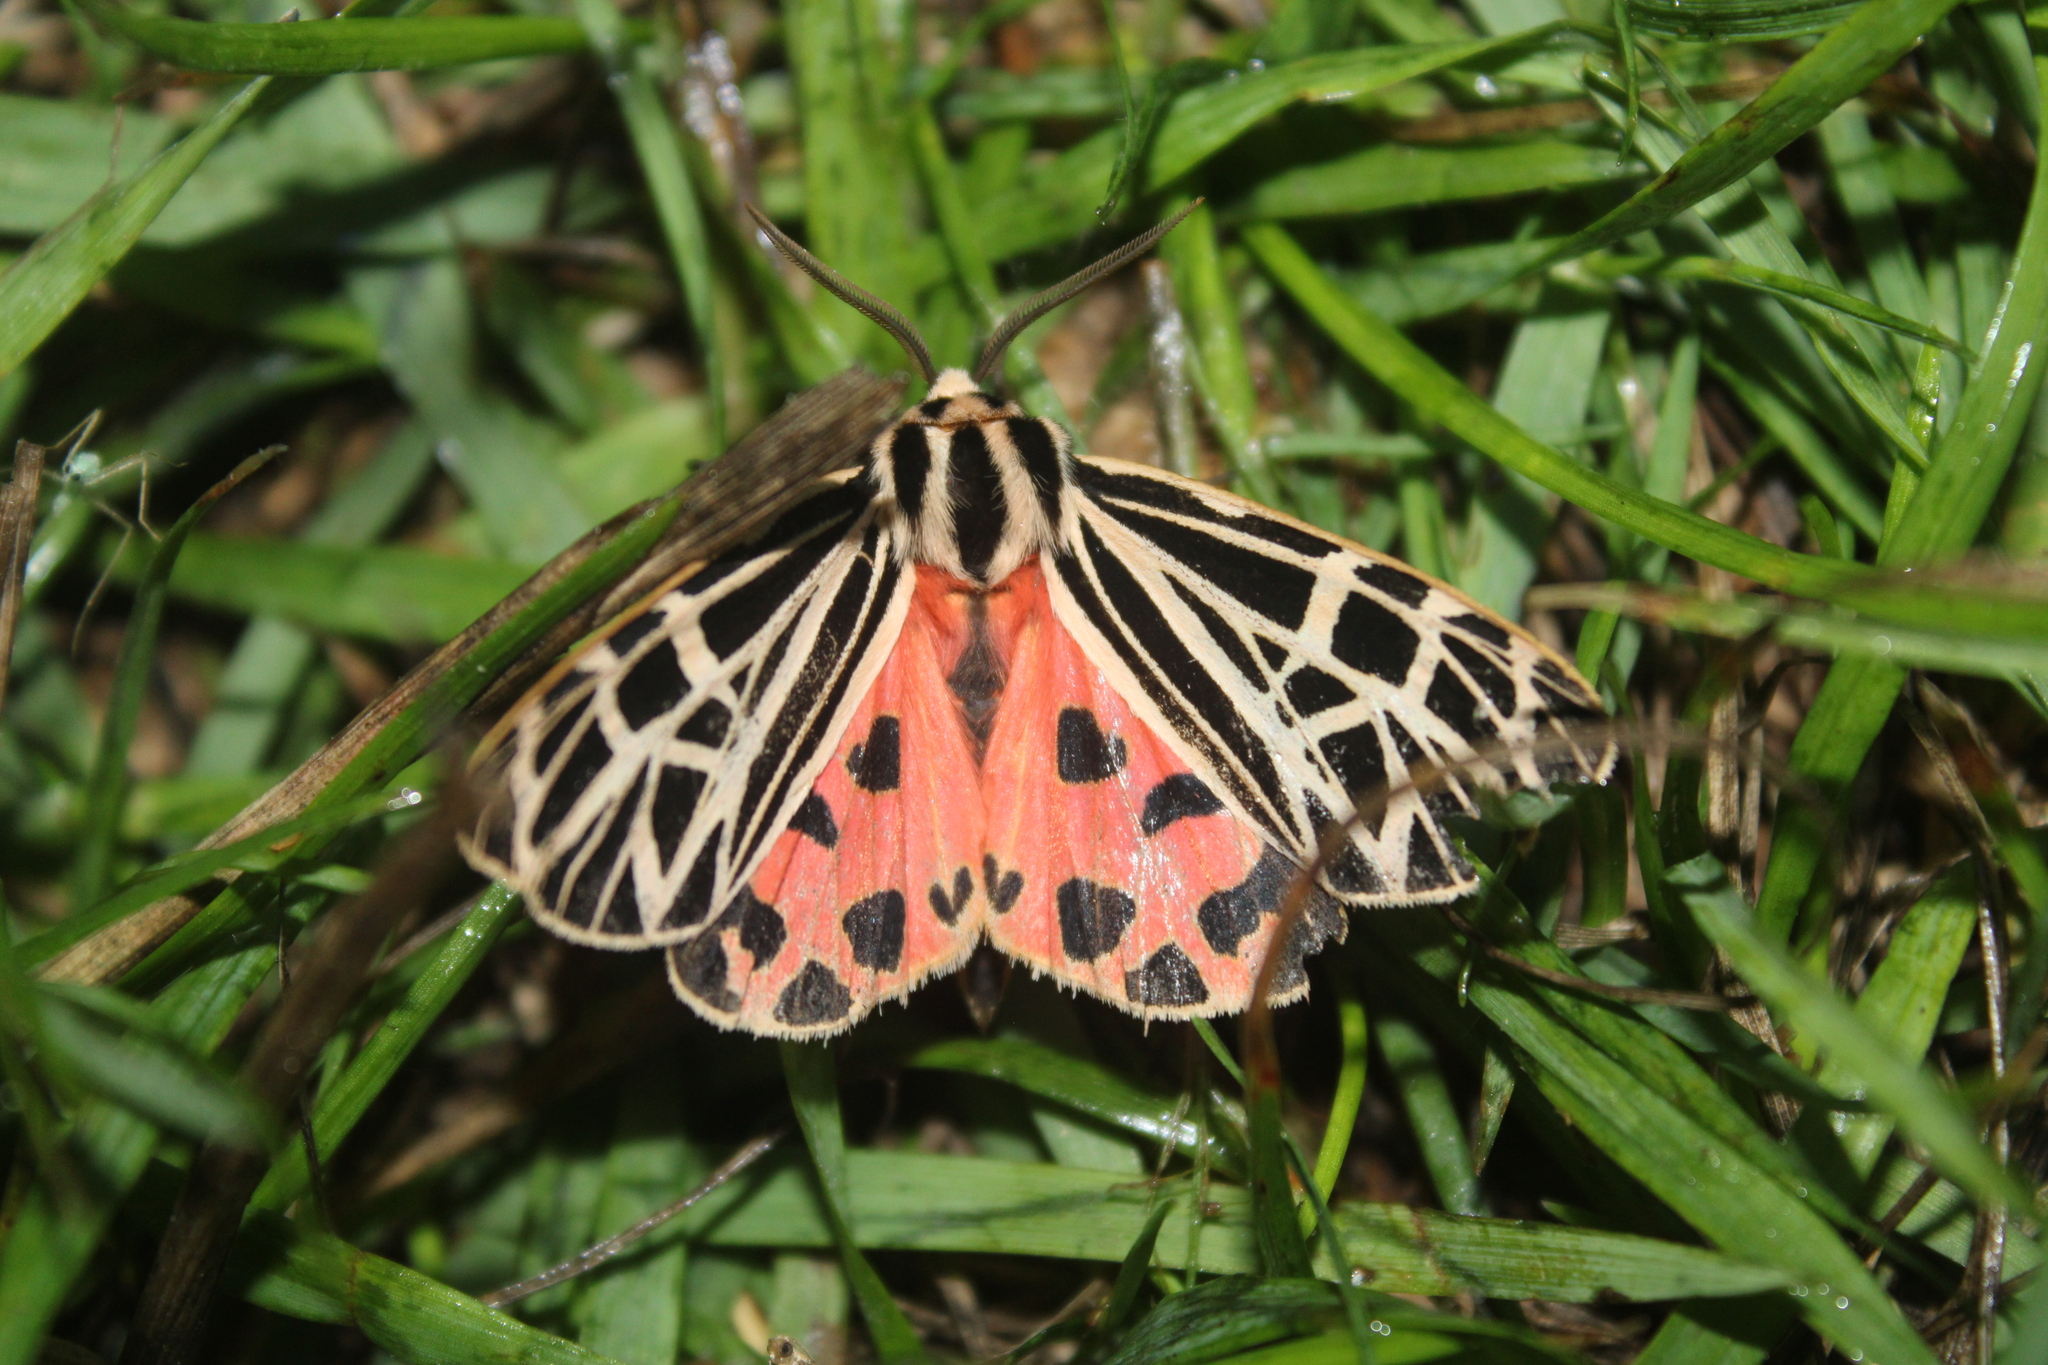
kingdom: Animalia
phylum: Arthropoda
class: Insecta
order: Lepidoptera
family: Erebidae
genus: Grammia
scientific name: Grammia virgo
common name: Virgin tiger moth
